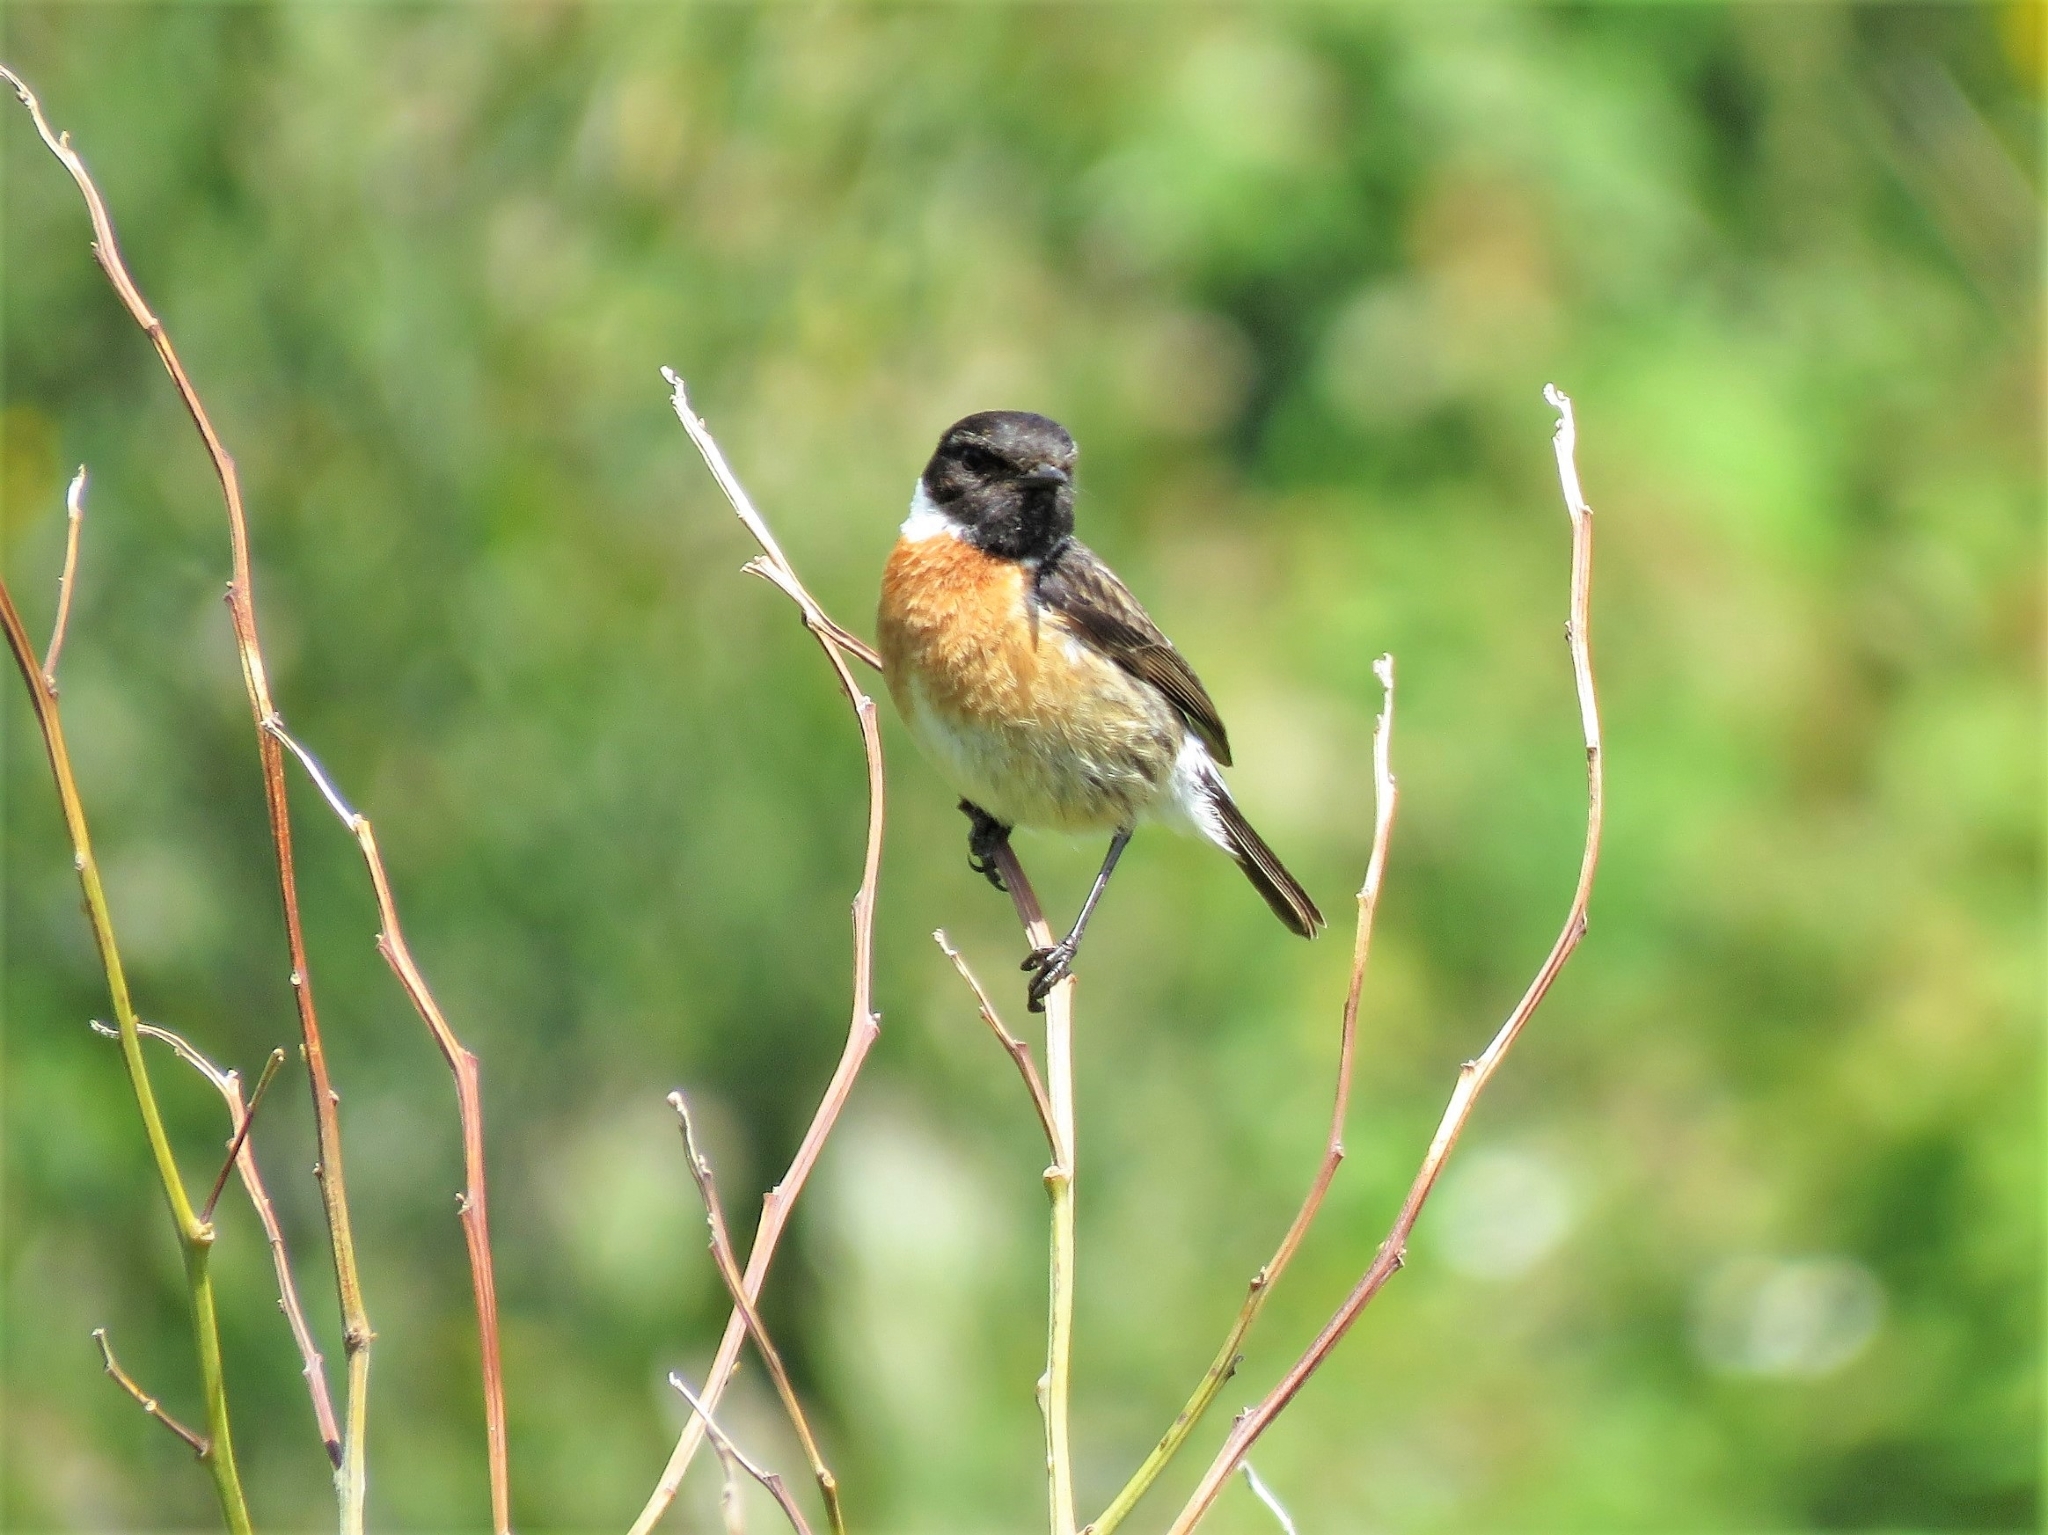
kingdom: Animalia
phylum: Chordata
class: Aves
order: Passeriformes
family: Muscicapidae
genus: Saxicola
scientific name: Saxicola rubicola
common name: European stonechat
